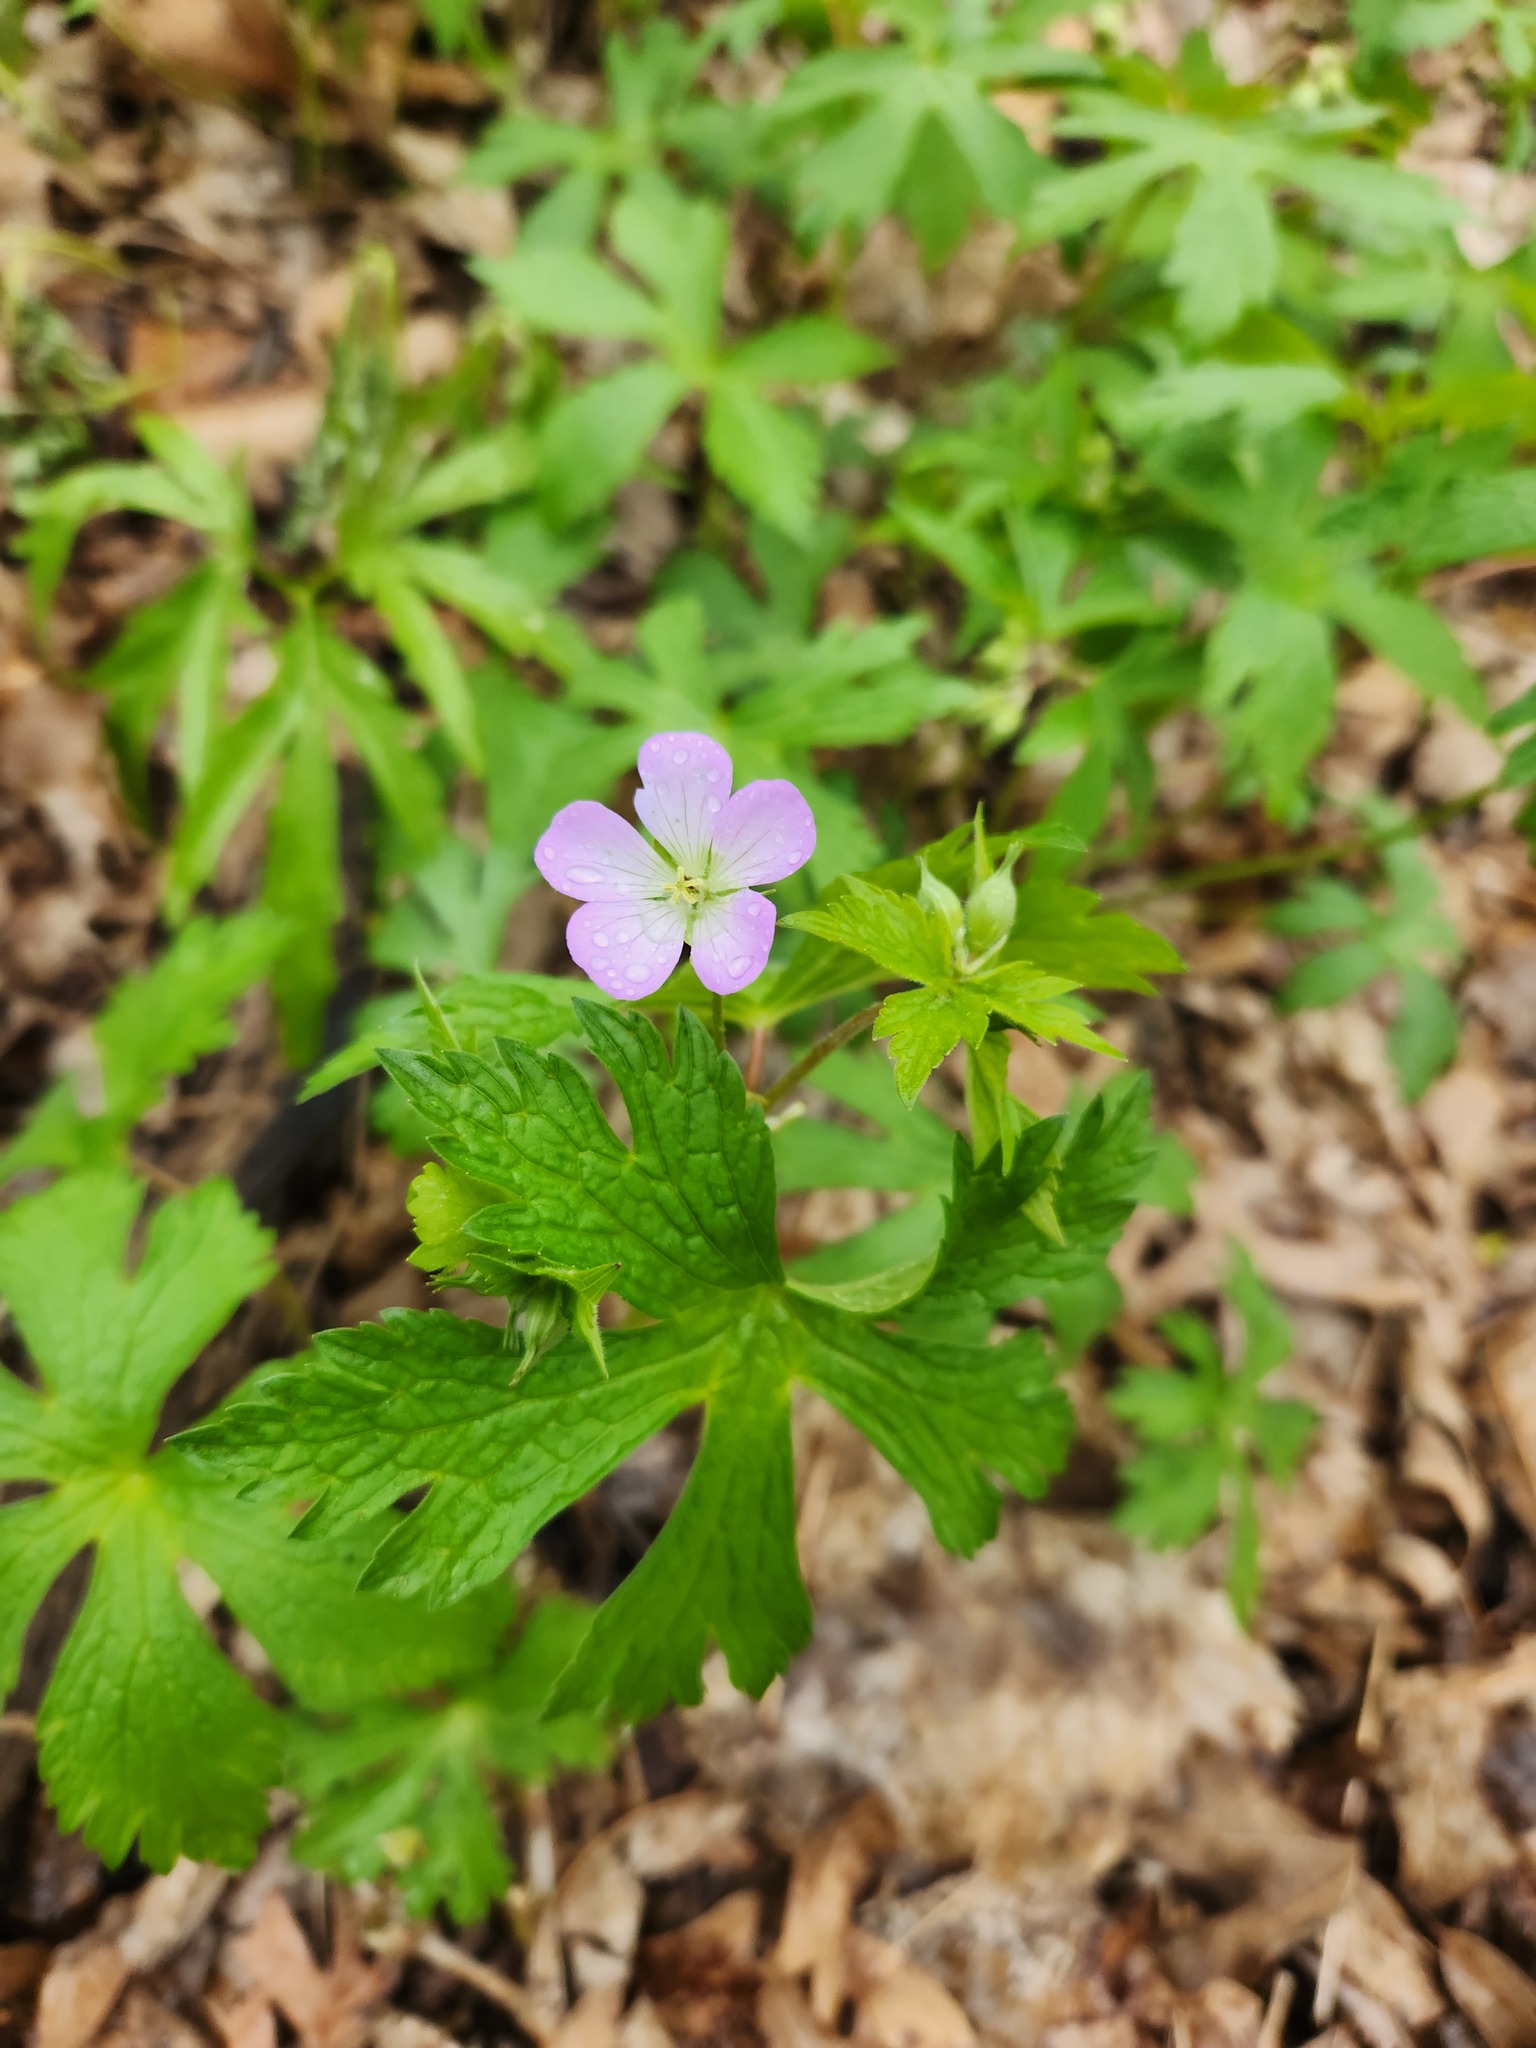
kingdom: Plantae
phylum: Tracheophyta
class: Magnoliopsida
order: Geraniales
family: Geraniaceae
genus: Geranium
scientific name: Geranium maculatum
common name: Spotted geranium
